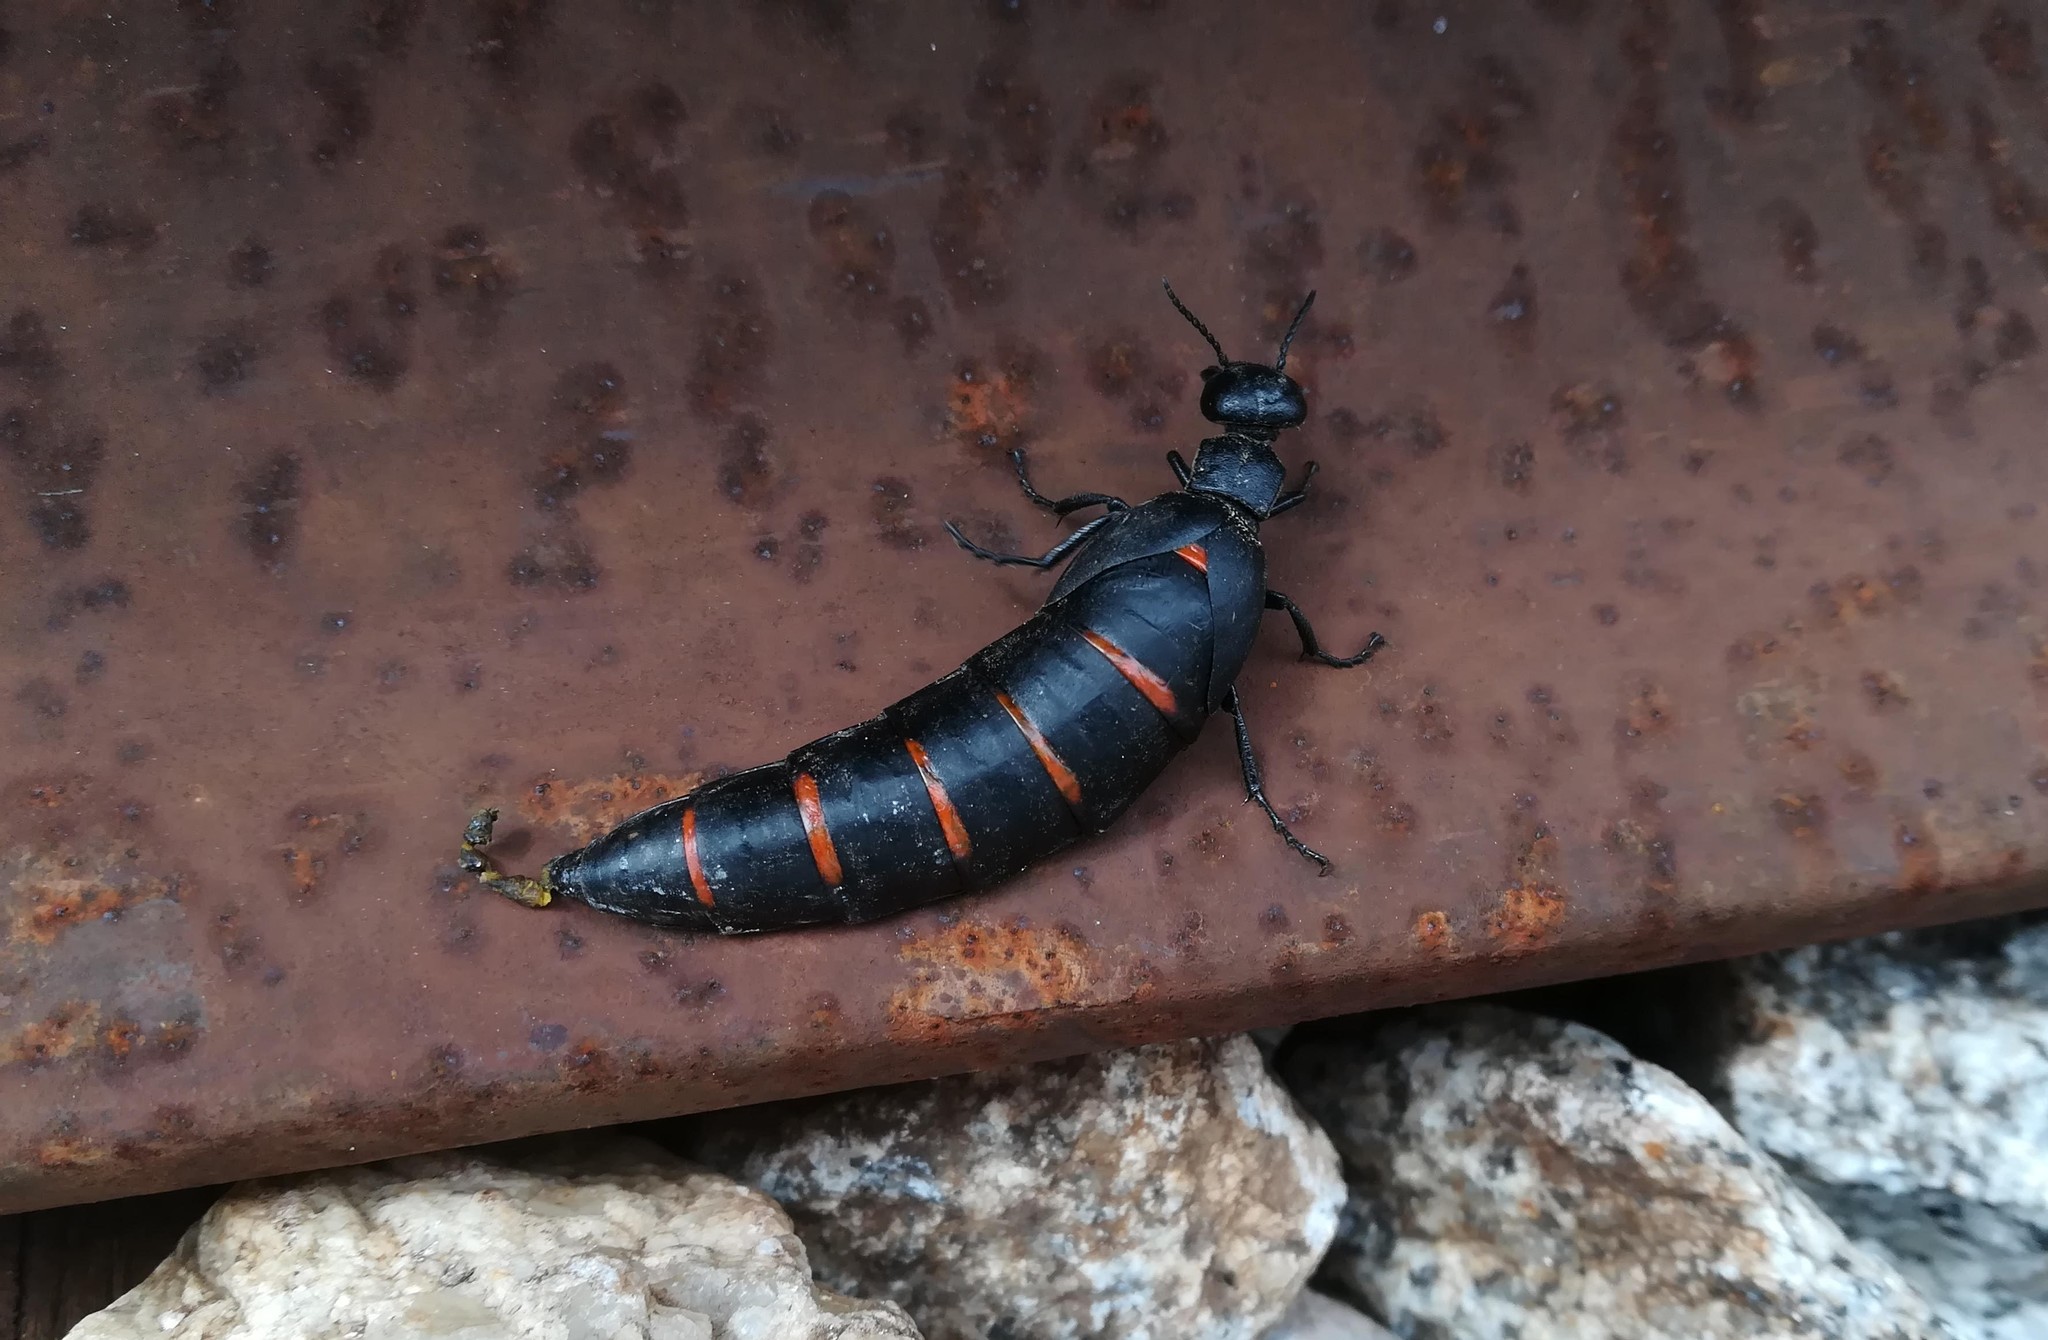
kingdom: Animalia
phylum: Arthropoda
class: Insecta
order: Coleoptera
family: Meloidae
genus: Berberomeloe
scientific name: Berberomeloe castuo
